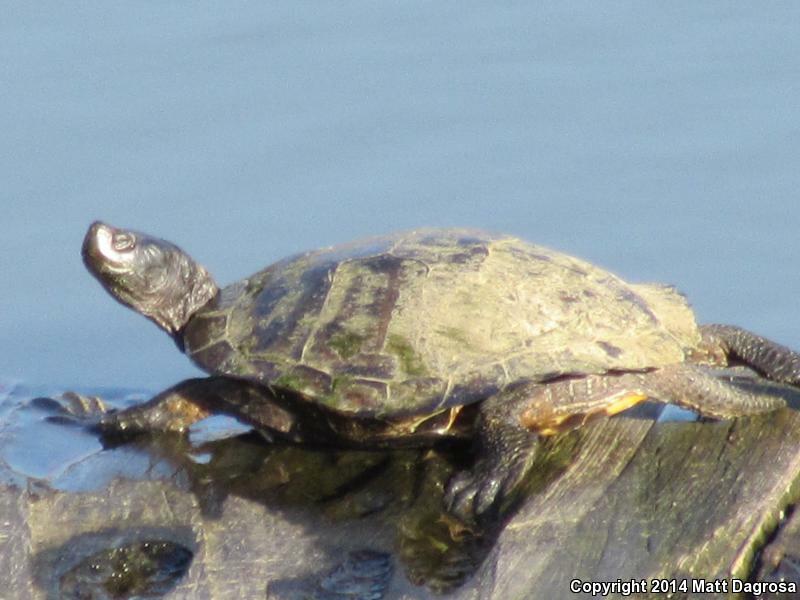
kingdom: Animalia
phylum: Chordata
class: Testudines
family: Emydidae
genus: Trachemys
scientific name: Trachemys scripta
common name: Slider
